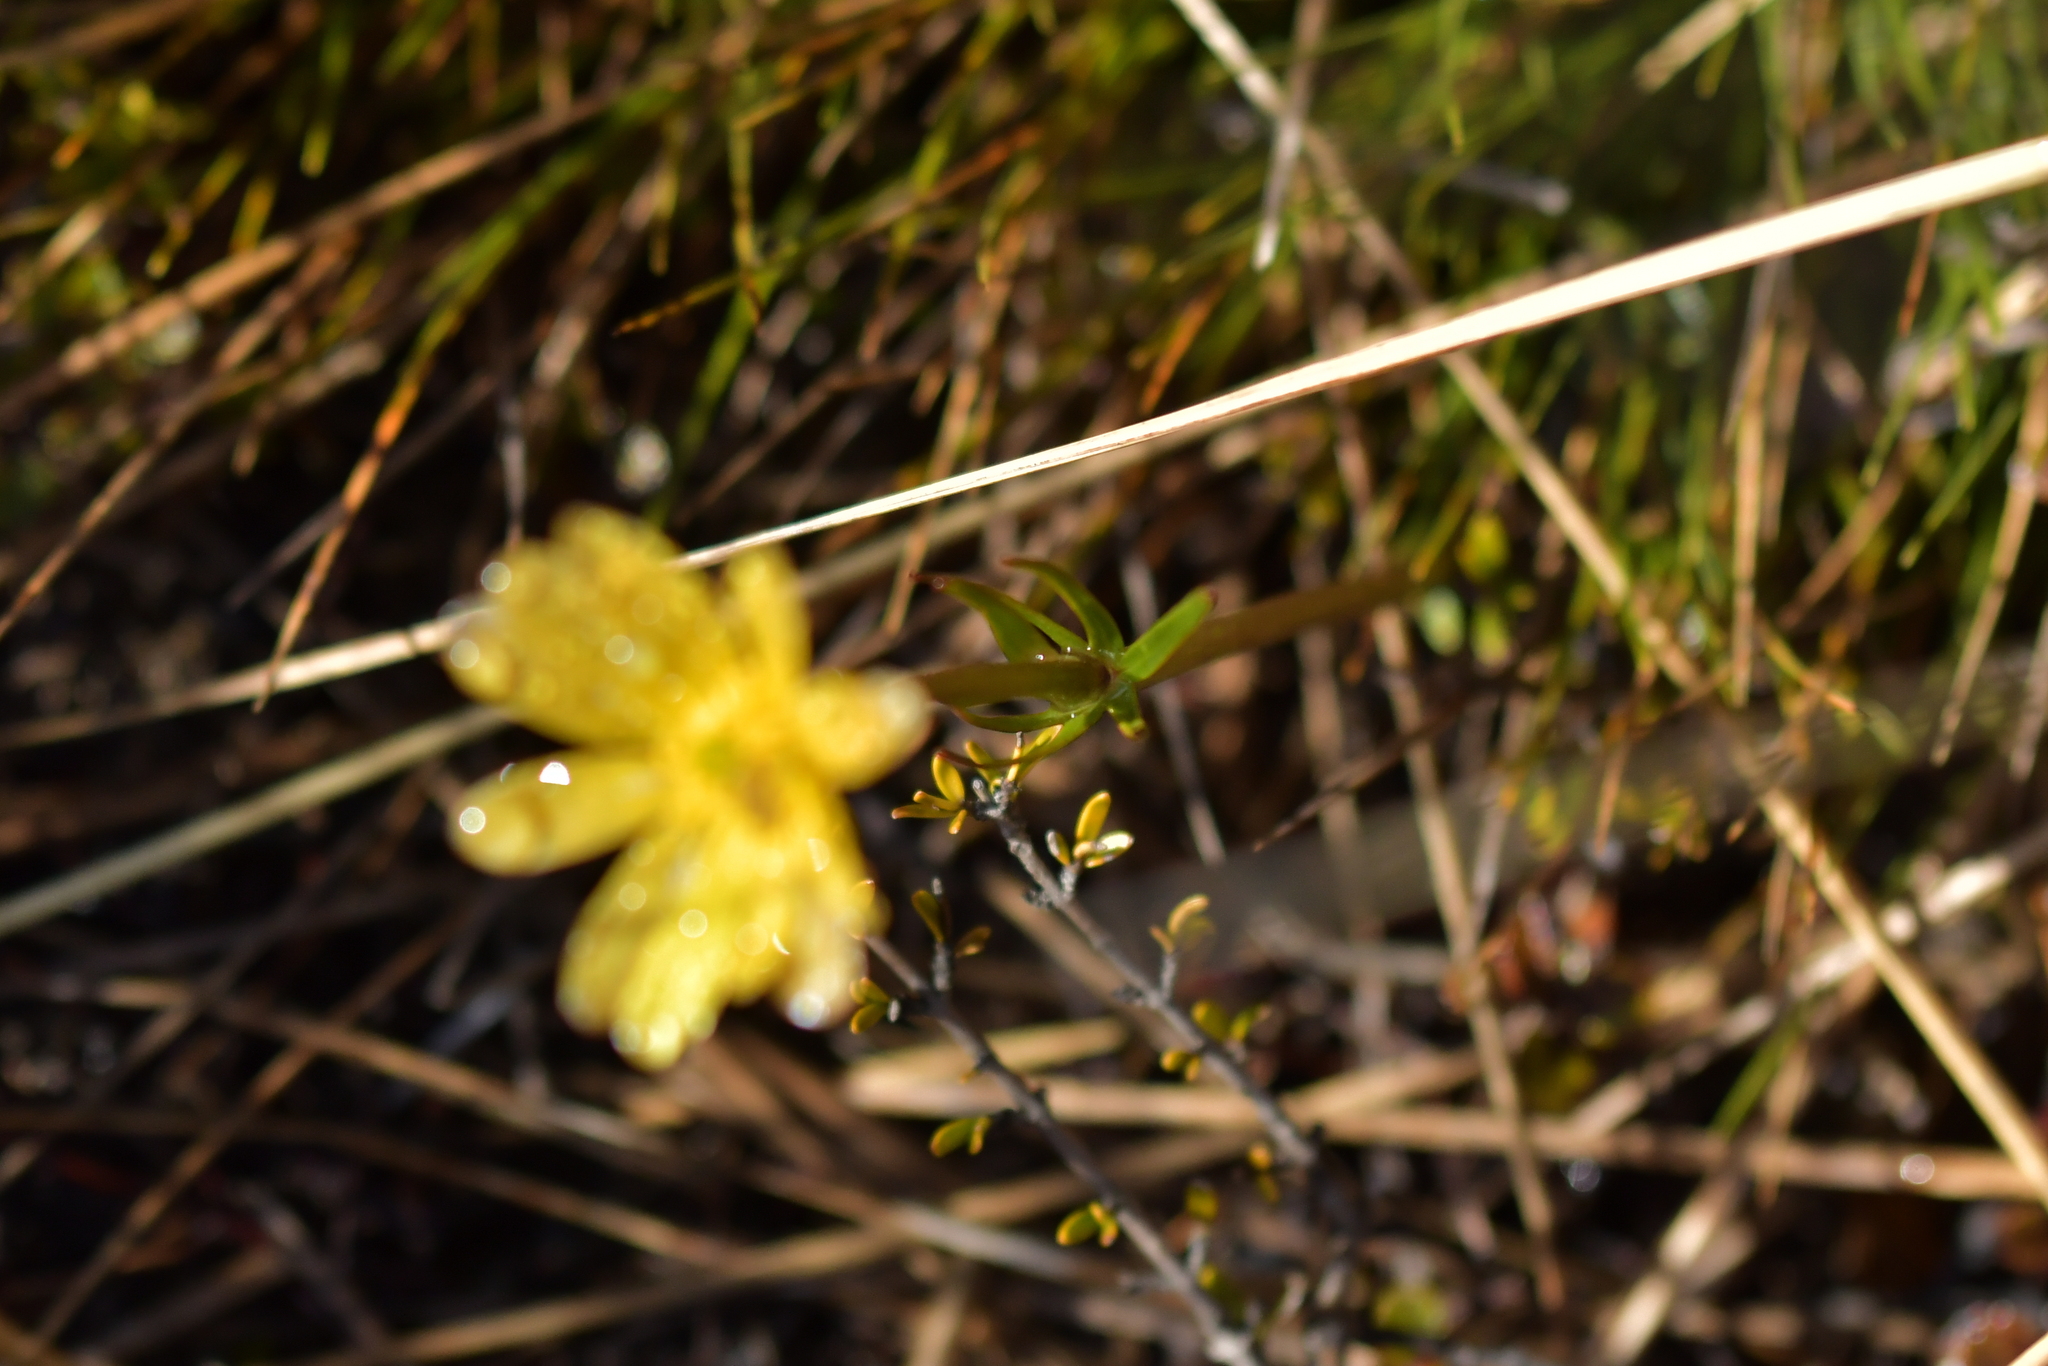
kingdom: Plantae
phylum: Tracheophyta
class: Magnoliopsida
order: Ranunculales
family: Ranunculaceae
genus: Ranunculus
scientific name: Ranunculus verticillatus
